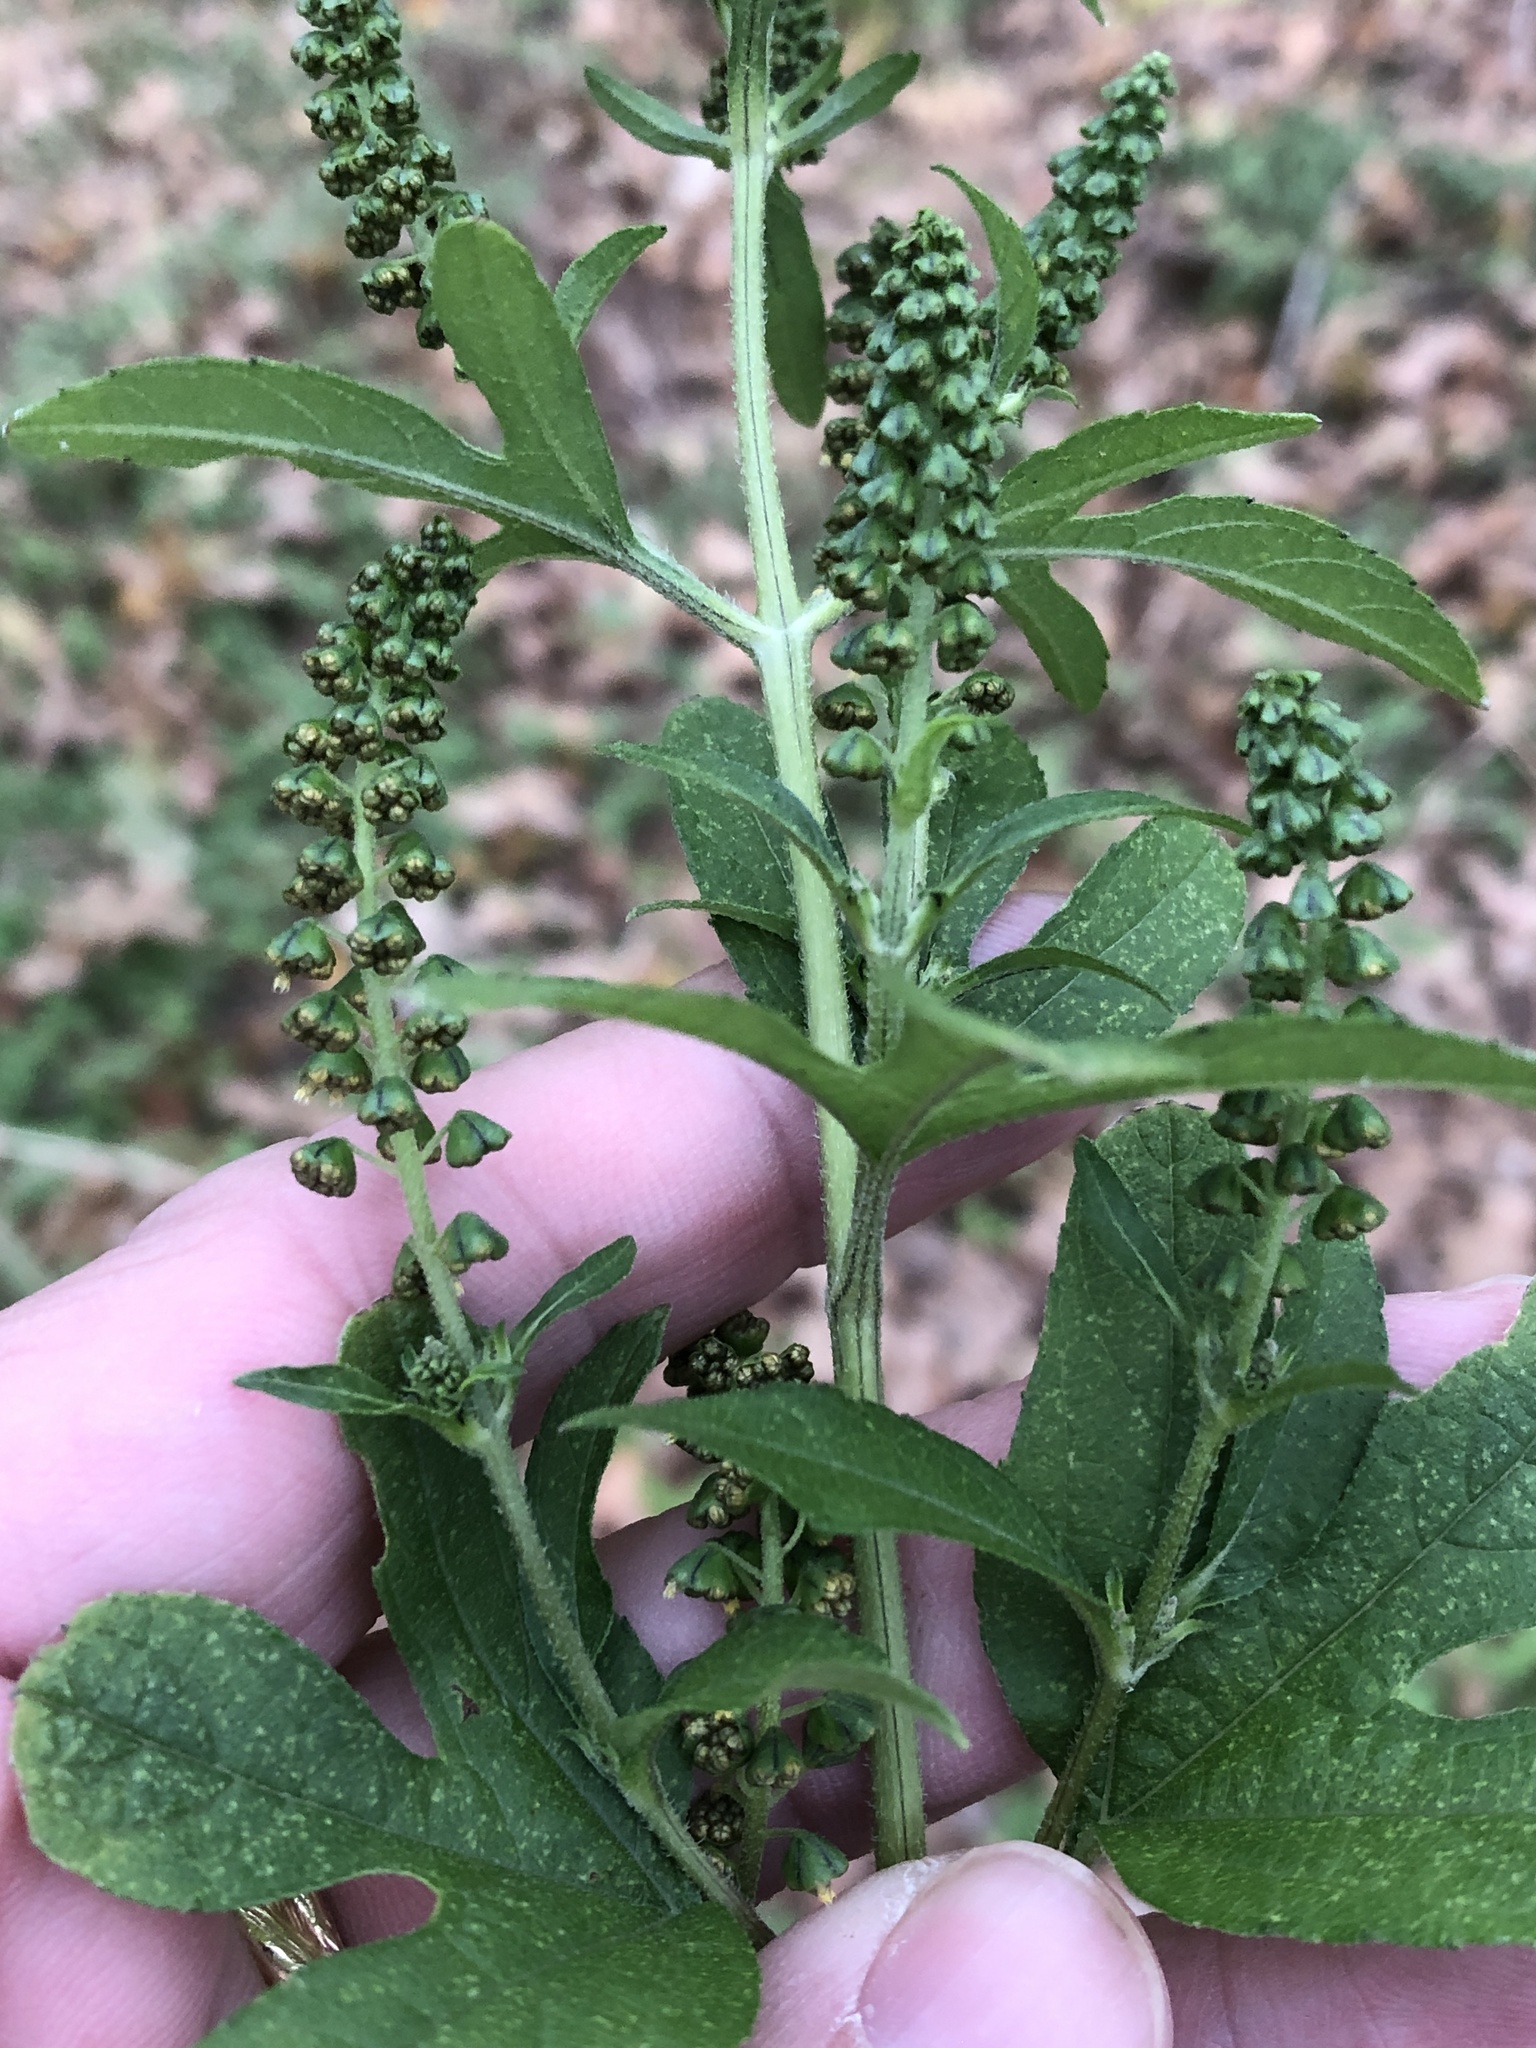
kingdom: Plantae
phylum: Tracheophyta
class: Magnoliopsida
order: Asterales
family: Asteraceae
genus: Ambrosia
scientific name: Ambrosia trifida
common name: Giant ragweed
